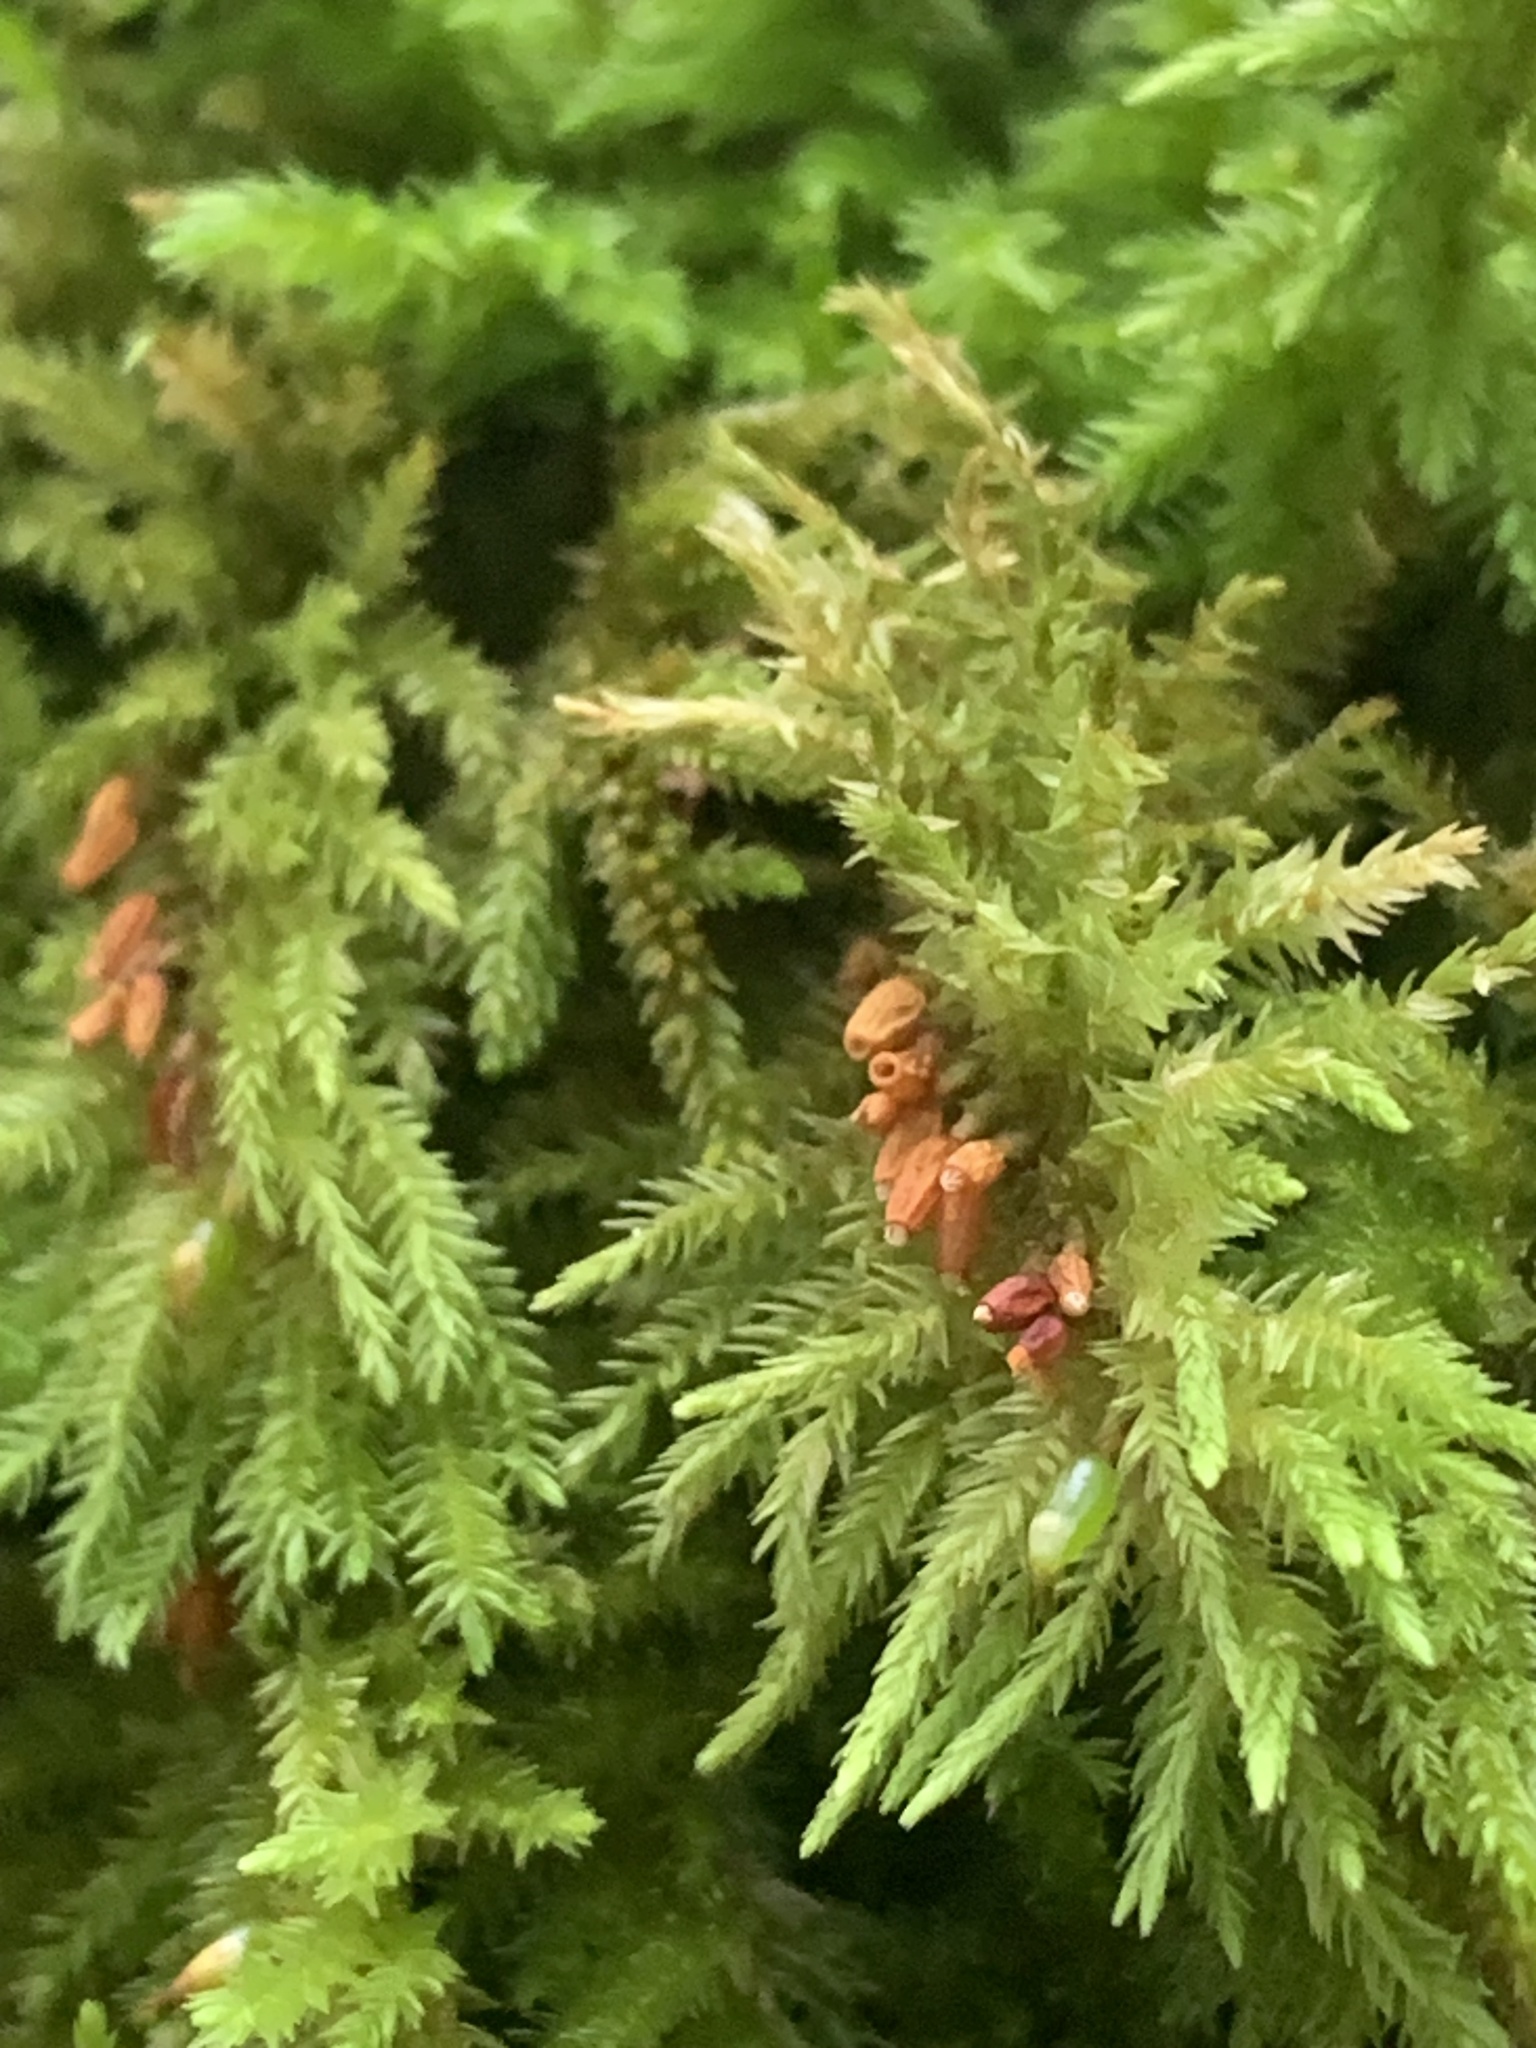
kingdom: Plantae
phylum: Bryophyta
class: Bryopsida
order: Hypnales
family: Cryphaeaceae
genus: Dendroalsia
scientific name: Dendroalsia abietina
